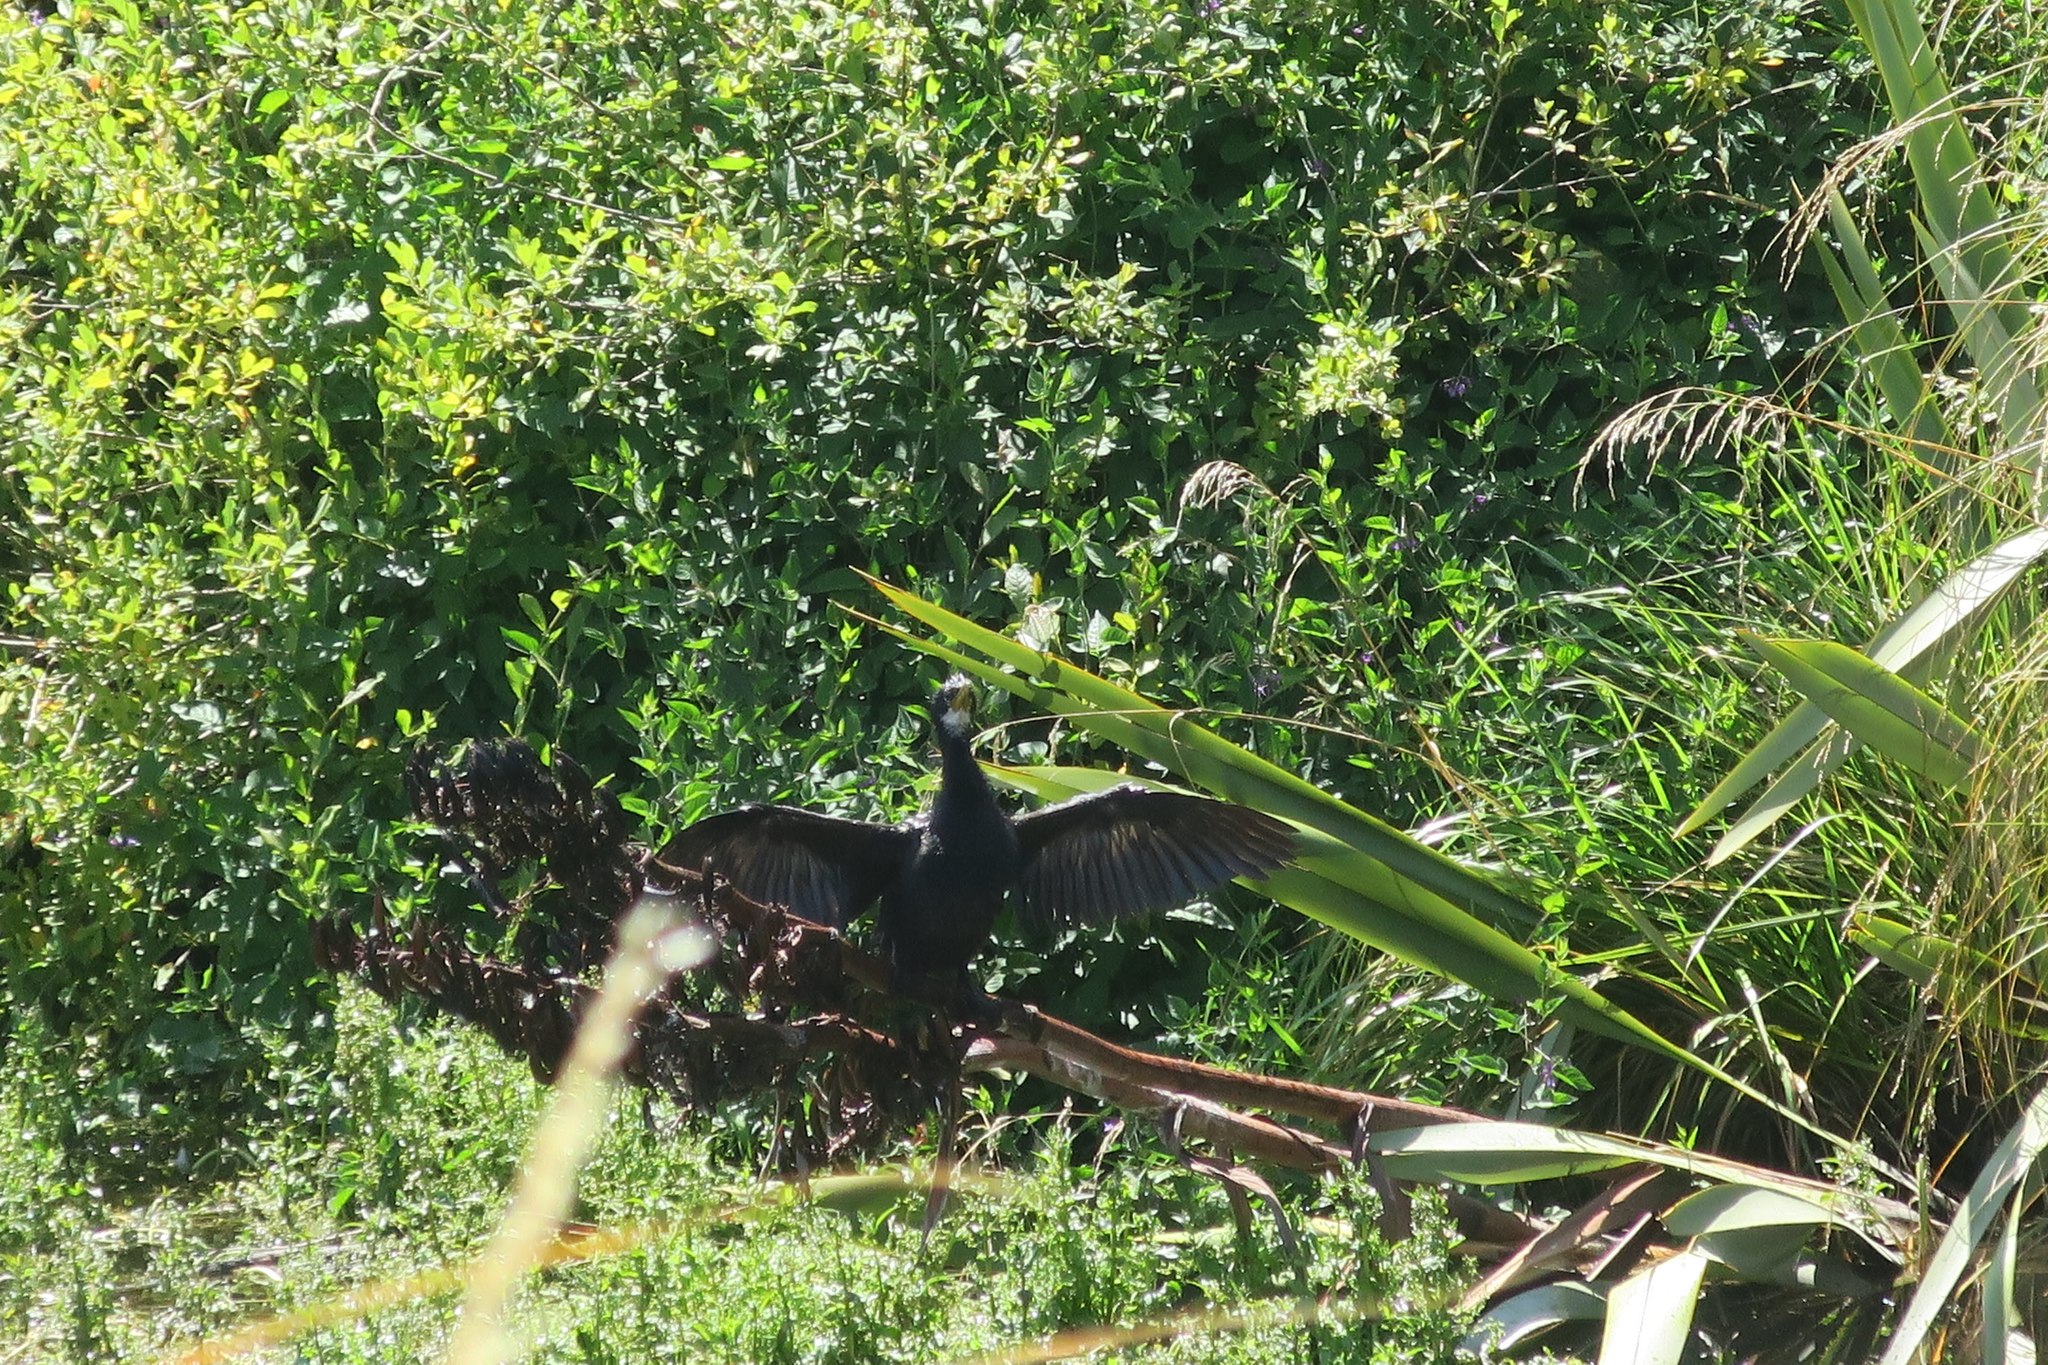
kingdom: Animalia
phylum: Chordata
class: Aves
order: Suliformes
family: Phalacrocoracidae
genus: Microcarbo
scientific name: Microcarbo melanoleucos
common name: Little pied cormorant
